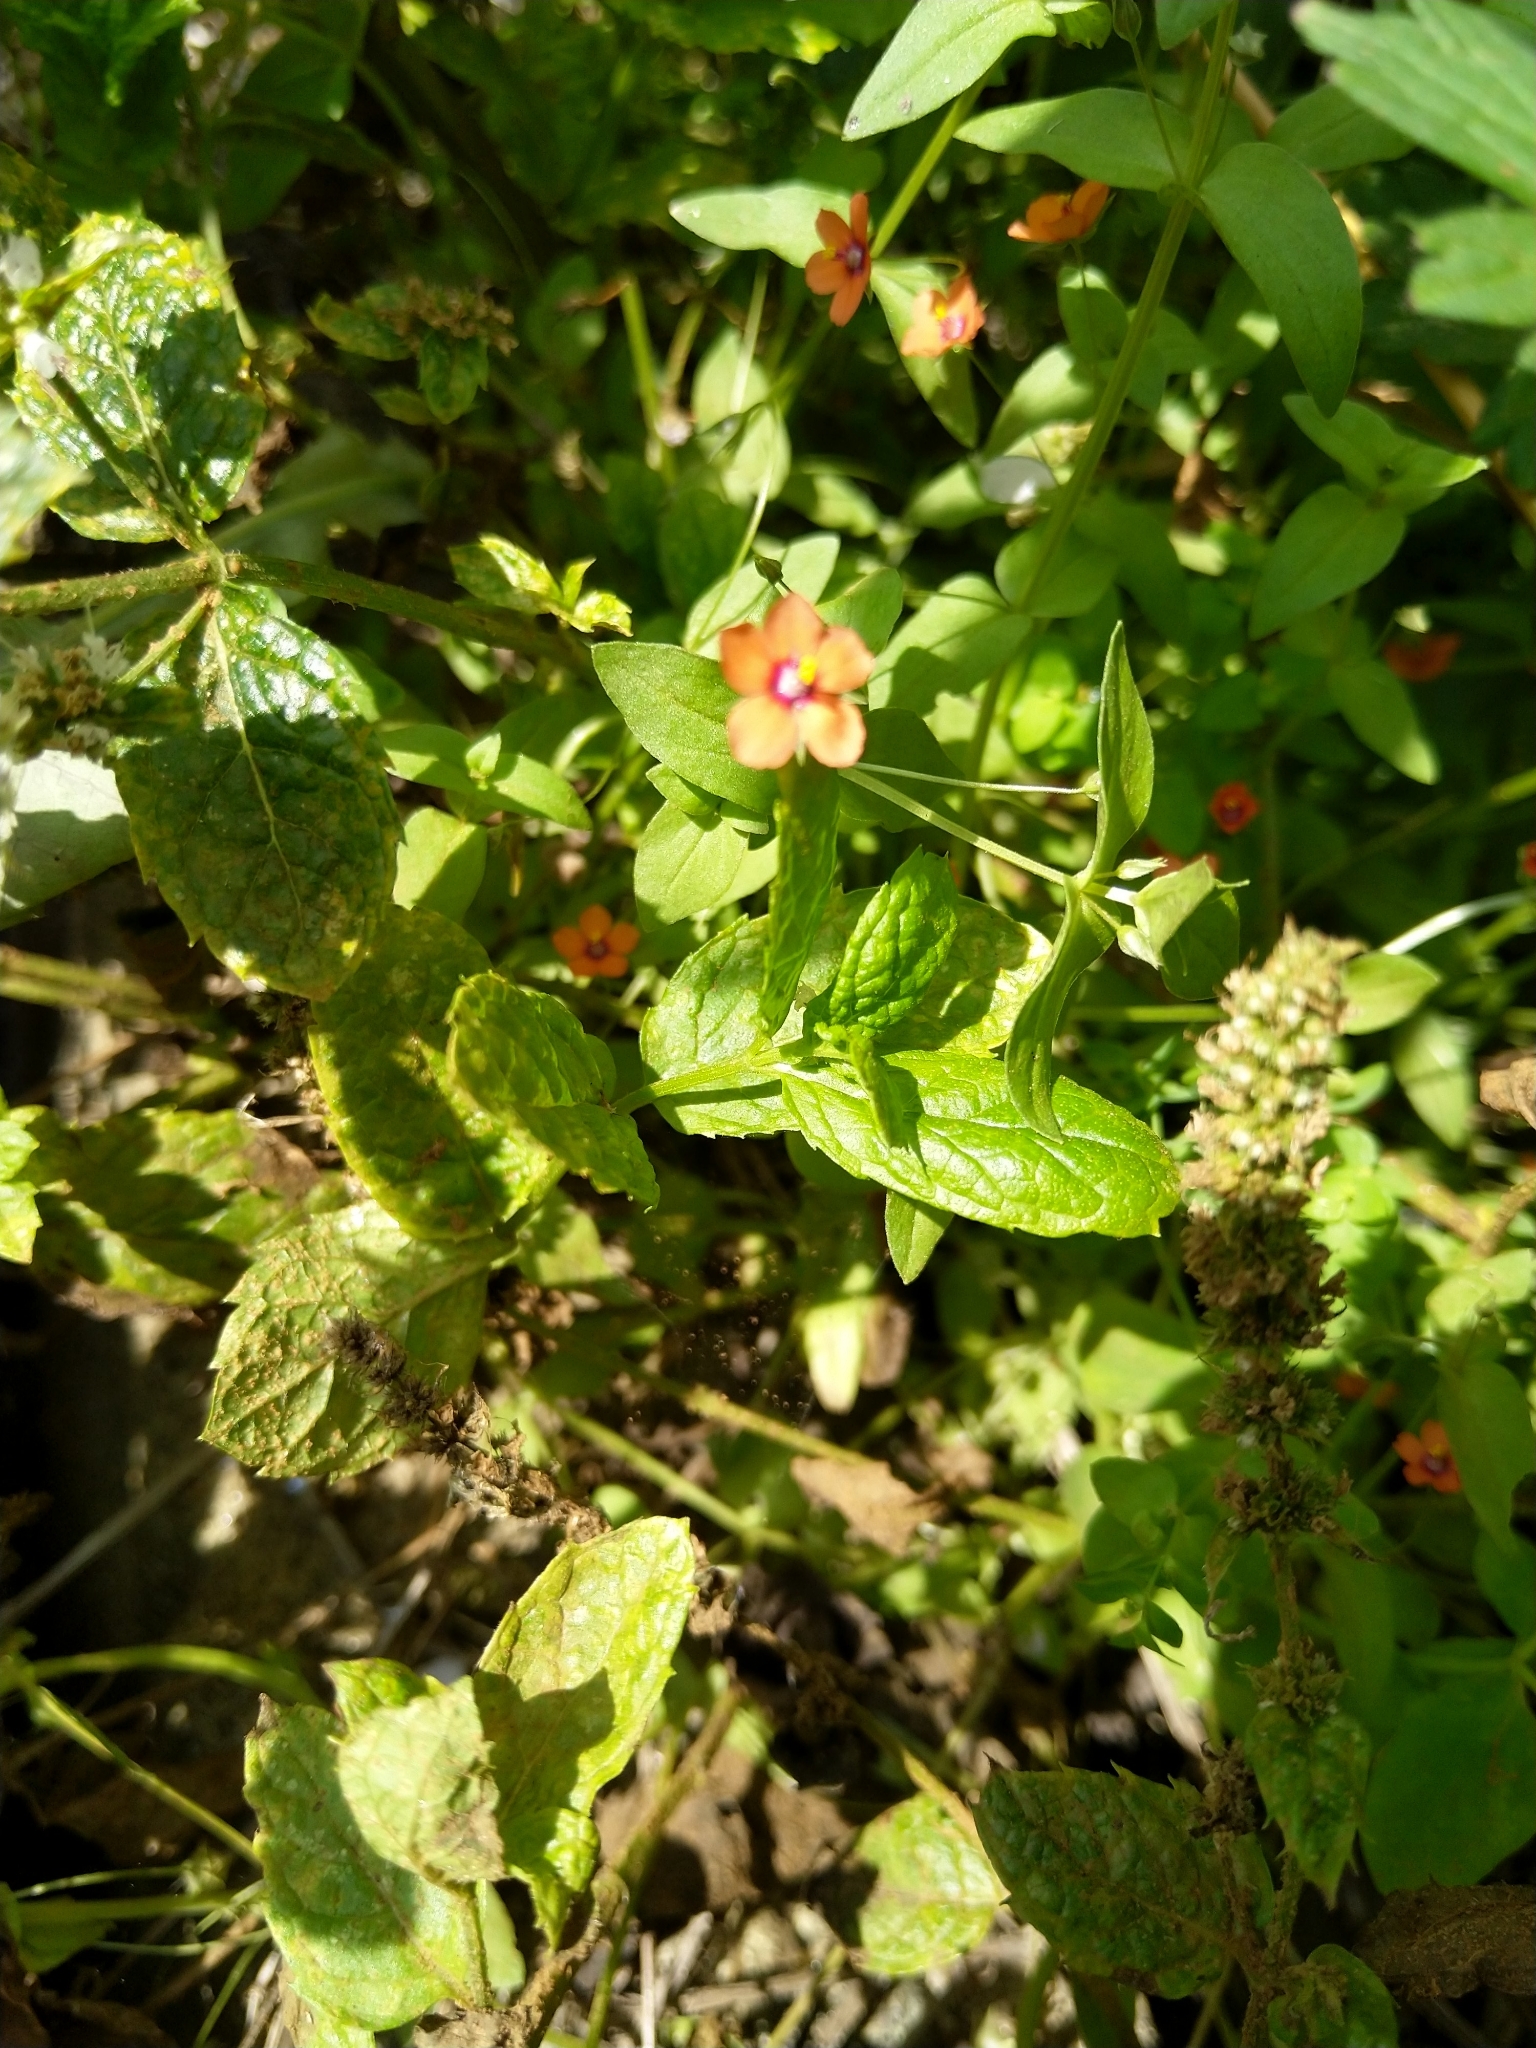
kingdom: Plantae
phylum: Tracheophyta
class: Magnoliopsida
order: Ericales
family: Primulaceae
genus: Lysimachia
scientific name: Lysimachia arvensis
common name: Scarlet pimpernel
